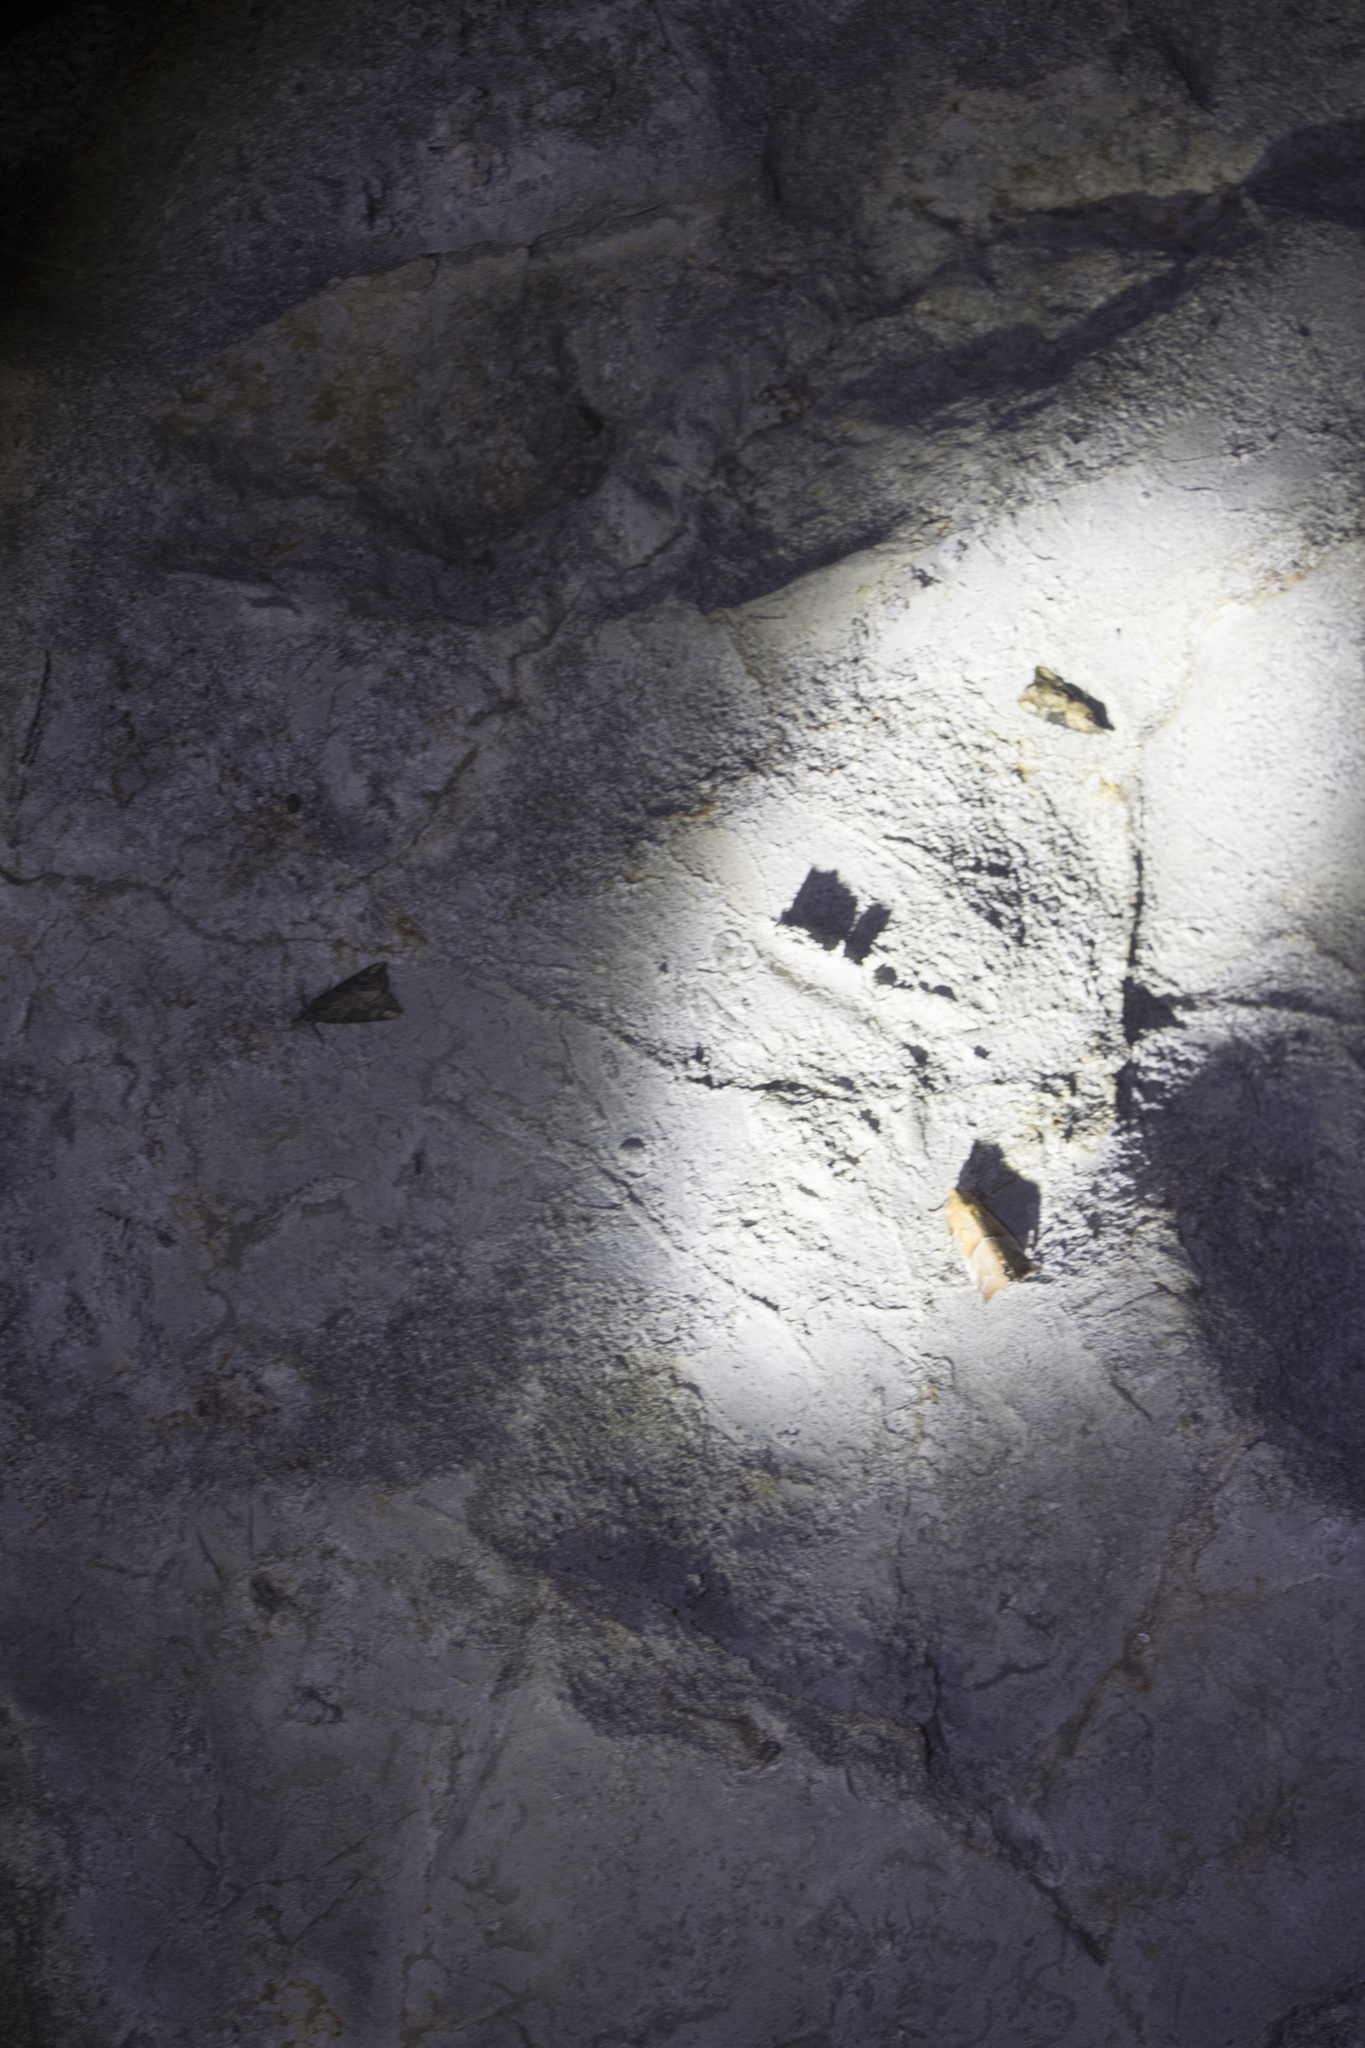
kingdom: Animalia
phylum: Arthropoda
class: Insecta
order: Lepidoptera
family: Erebidae
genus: Scoliopteryx
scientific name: Scoliopteryx libatrix
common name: Herald
